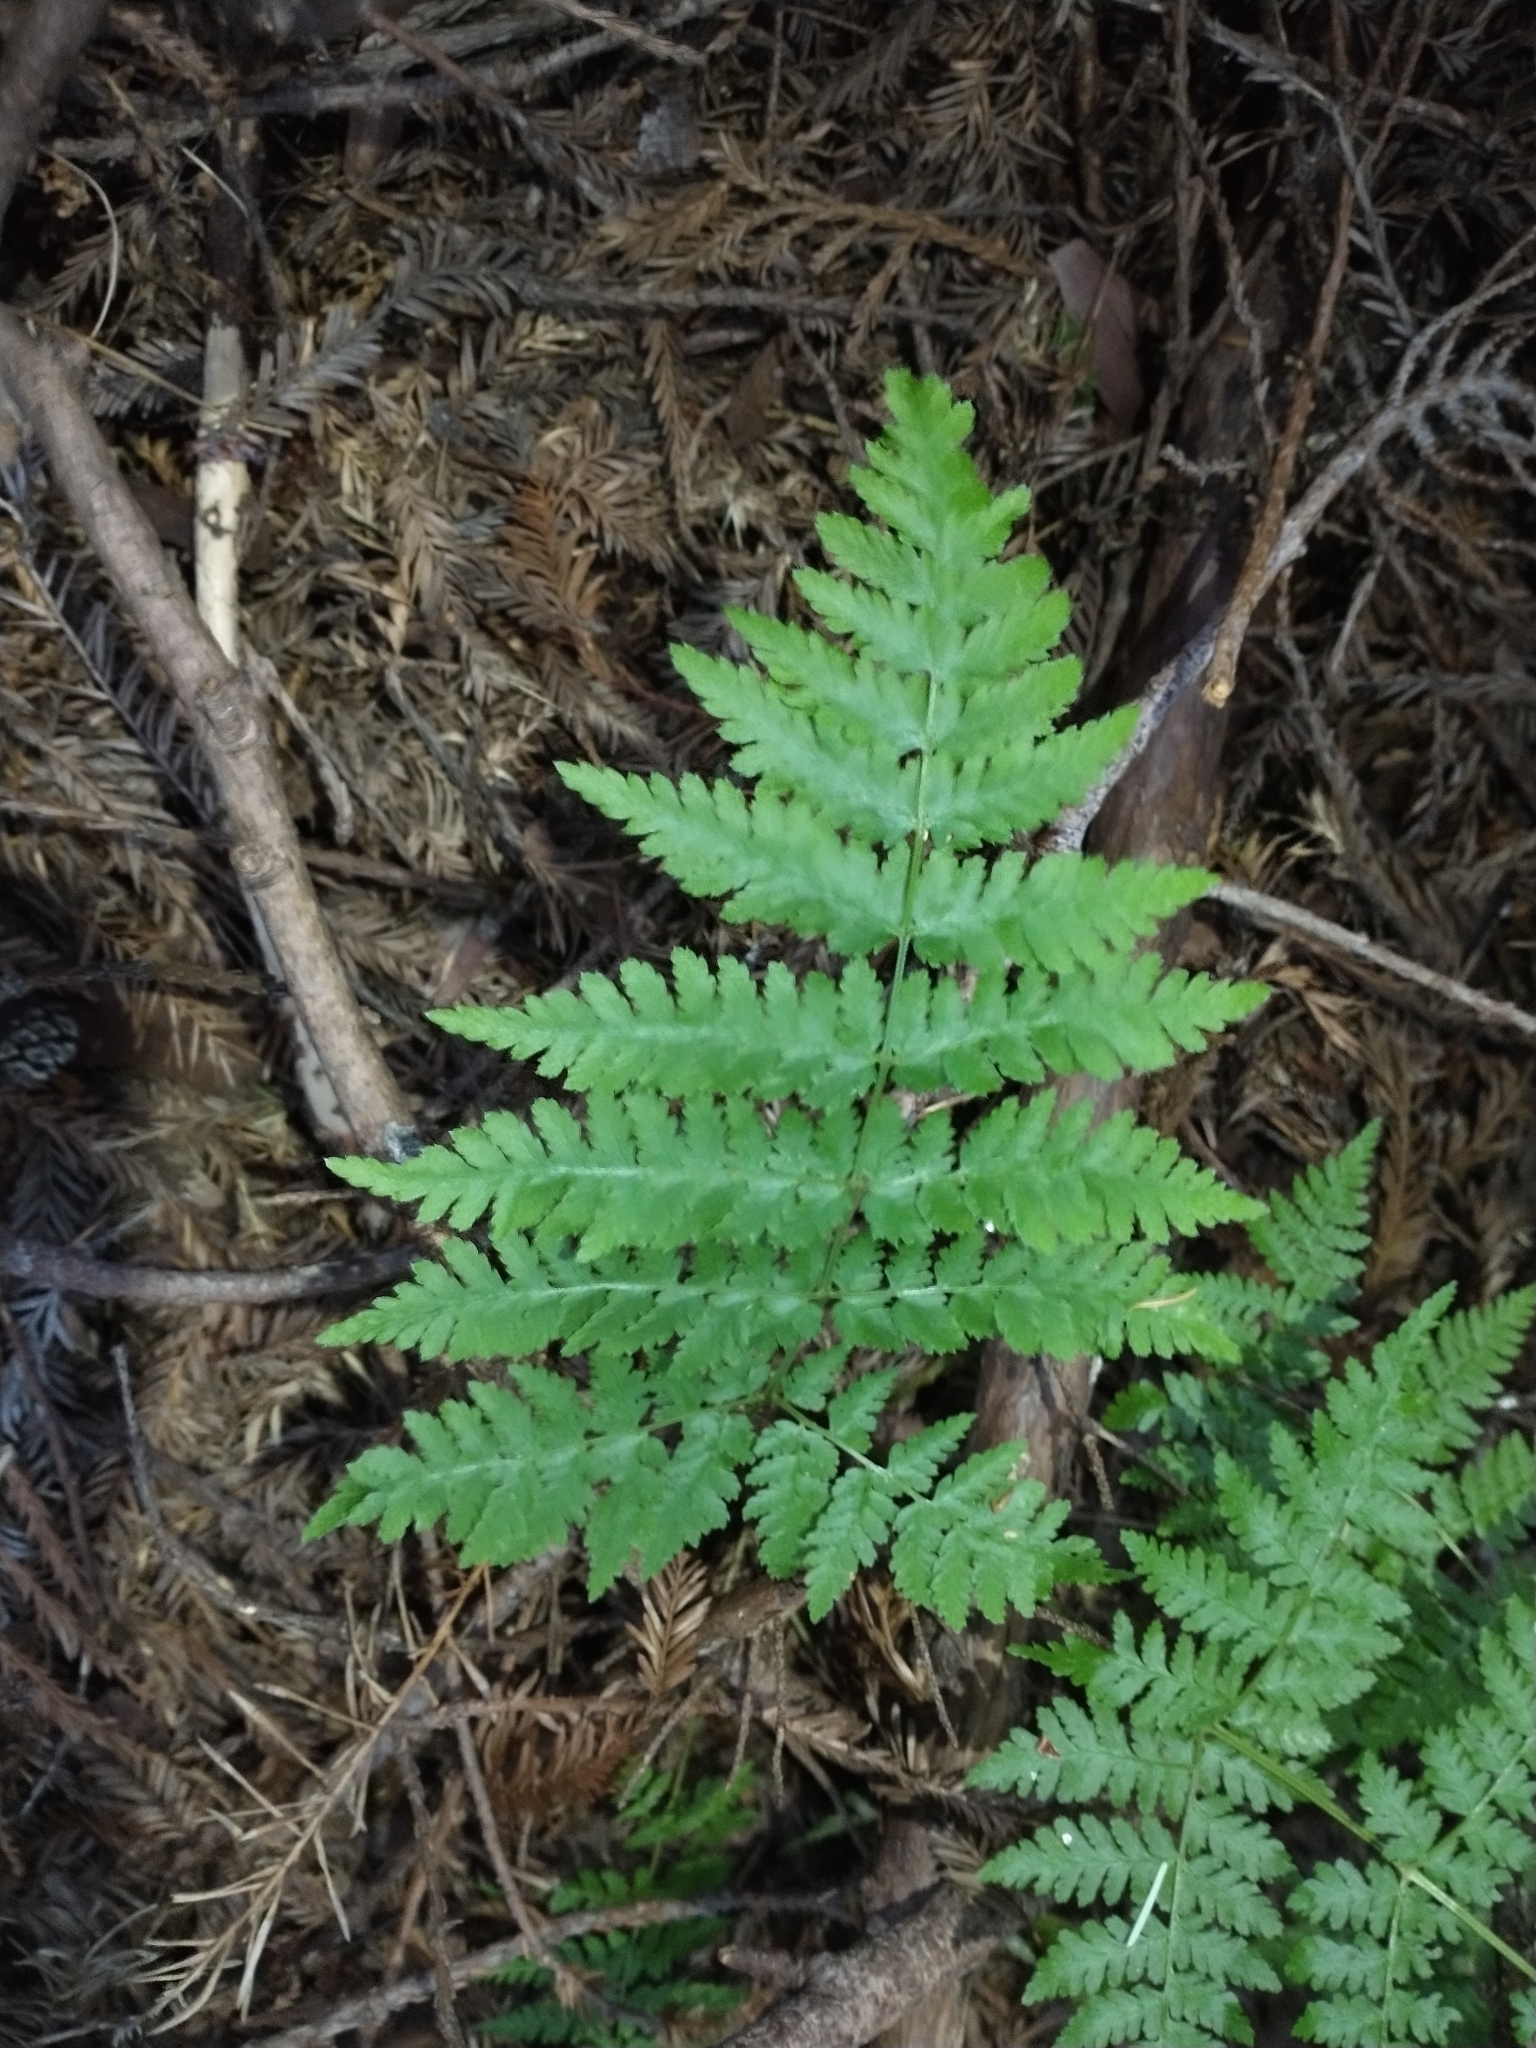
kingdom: Plantae
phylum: Tracheophyta
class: Polypodiopsida
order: Polypodiales
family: Dryopteridaceae
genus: Dryopteris
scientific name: Dryopteris expansa
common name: Northern buckler fern
